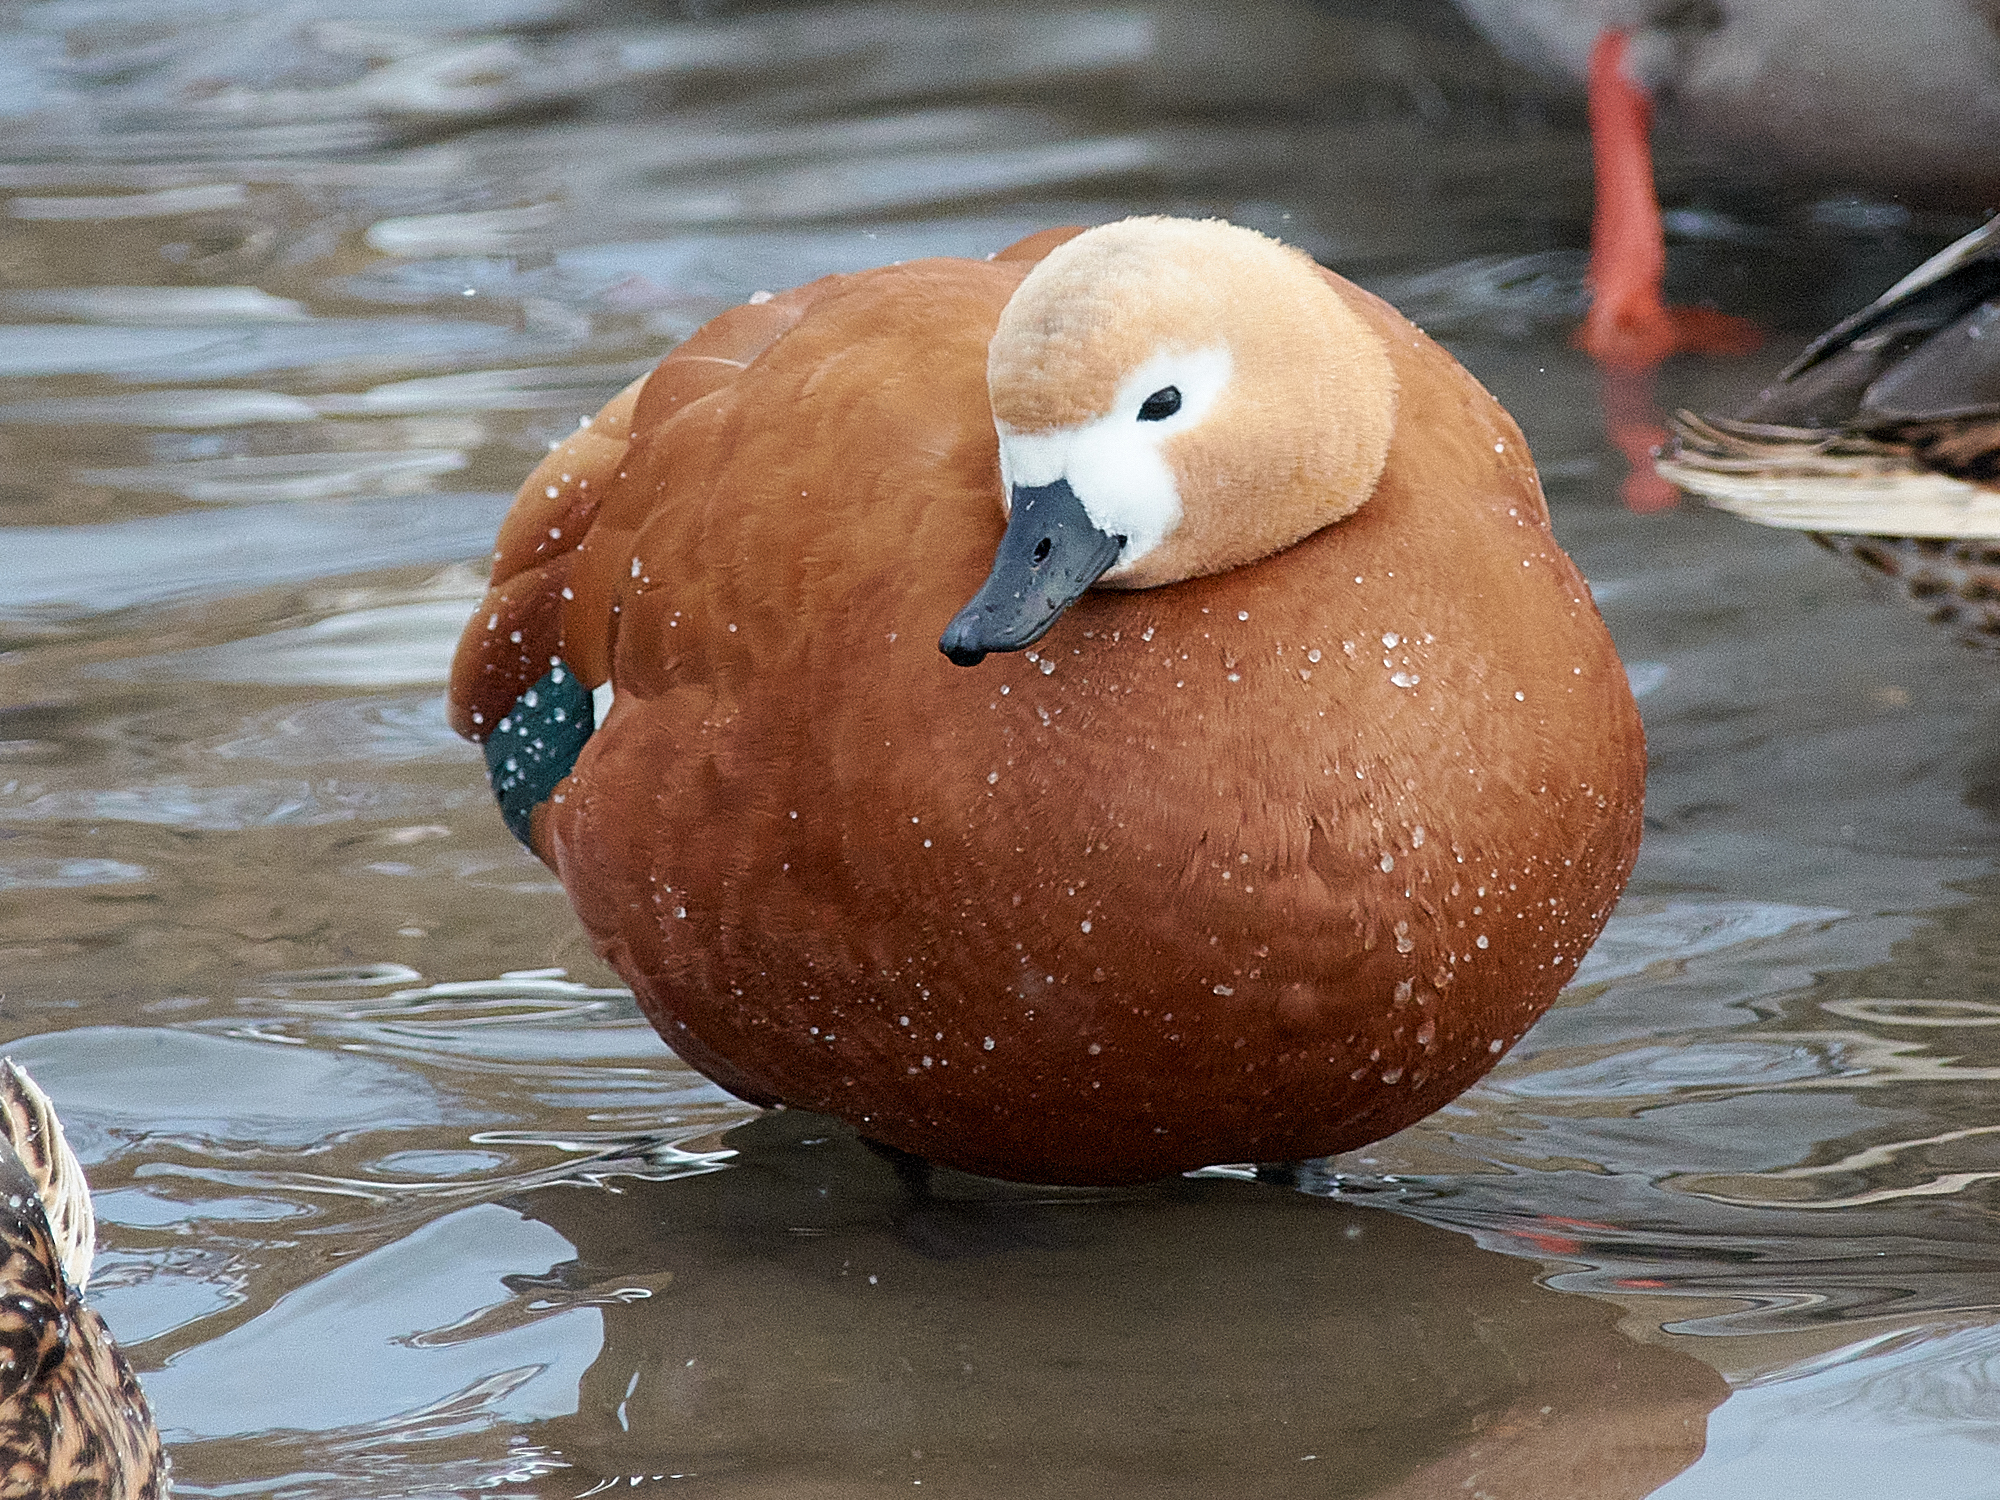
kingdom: Animalia
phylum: Chordata
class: Aves
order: Anseriformes
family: Anatidae
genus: Tadorna
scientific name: Tadorna ferruginea
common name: Ruddy shelduck
